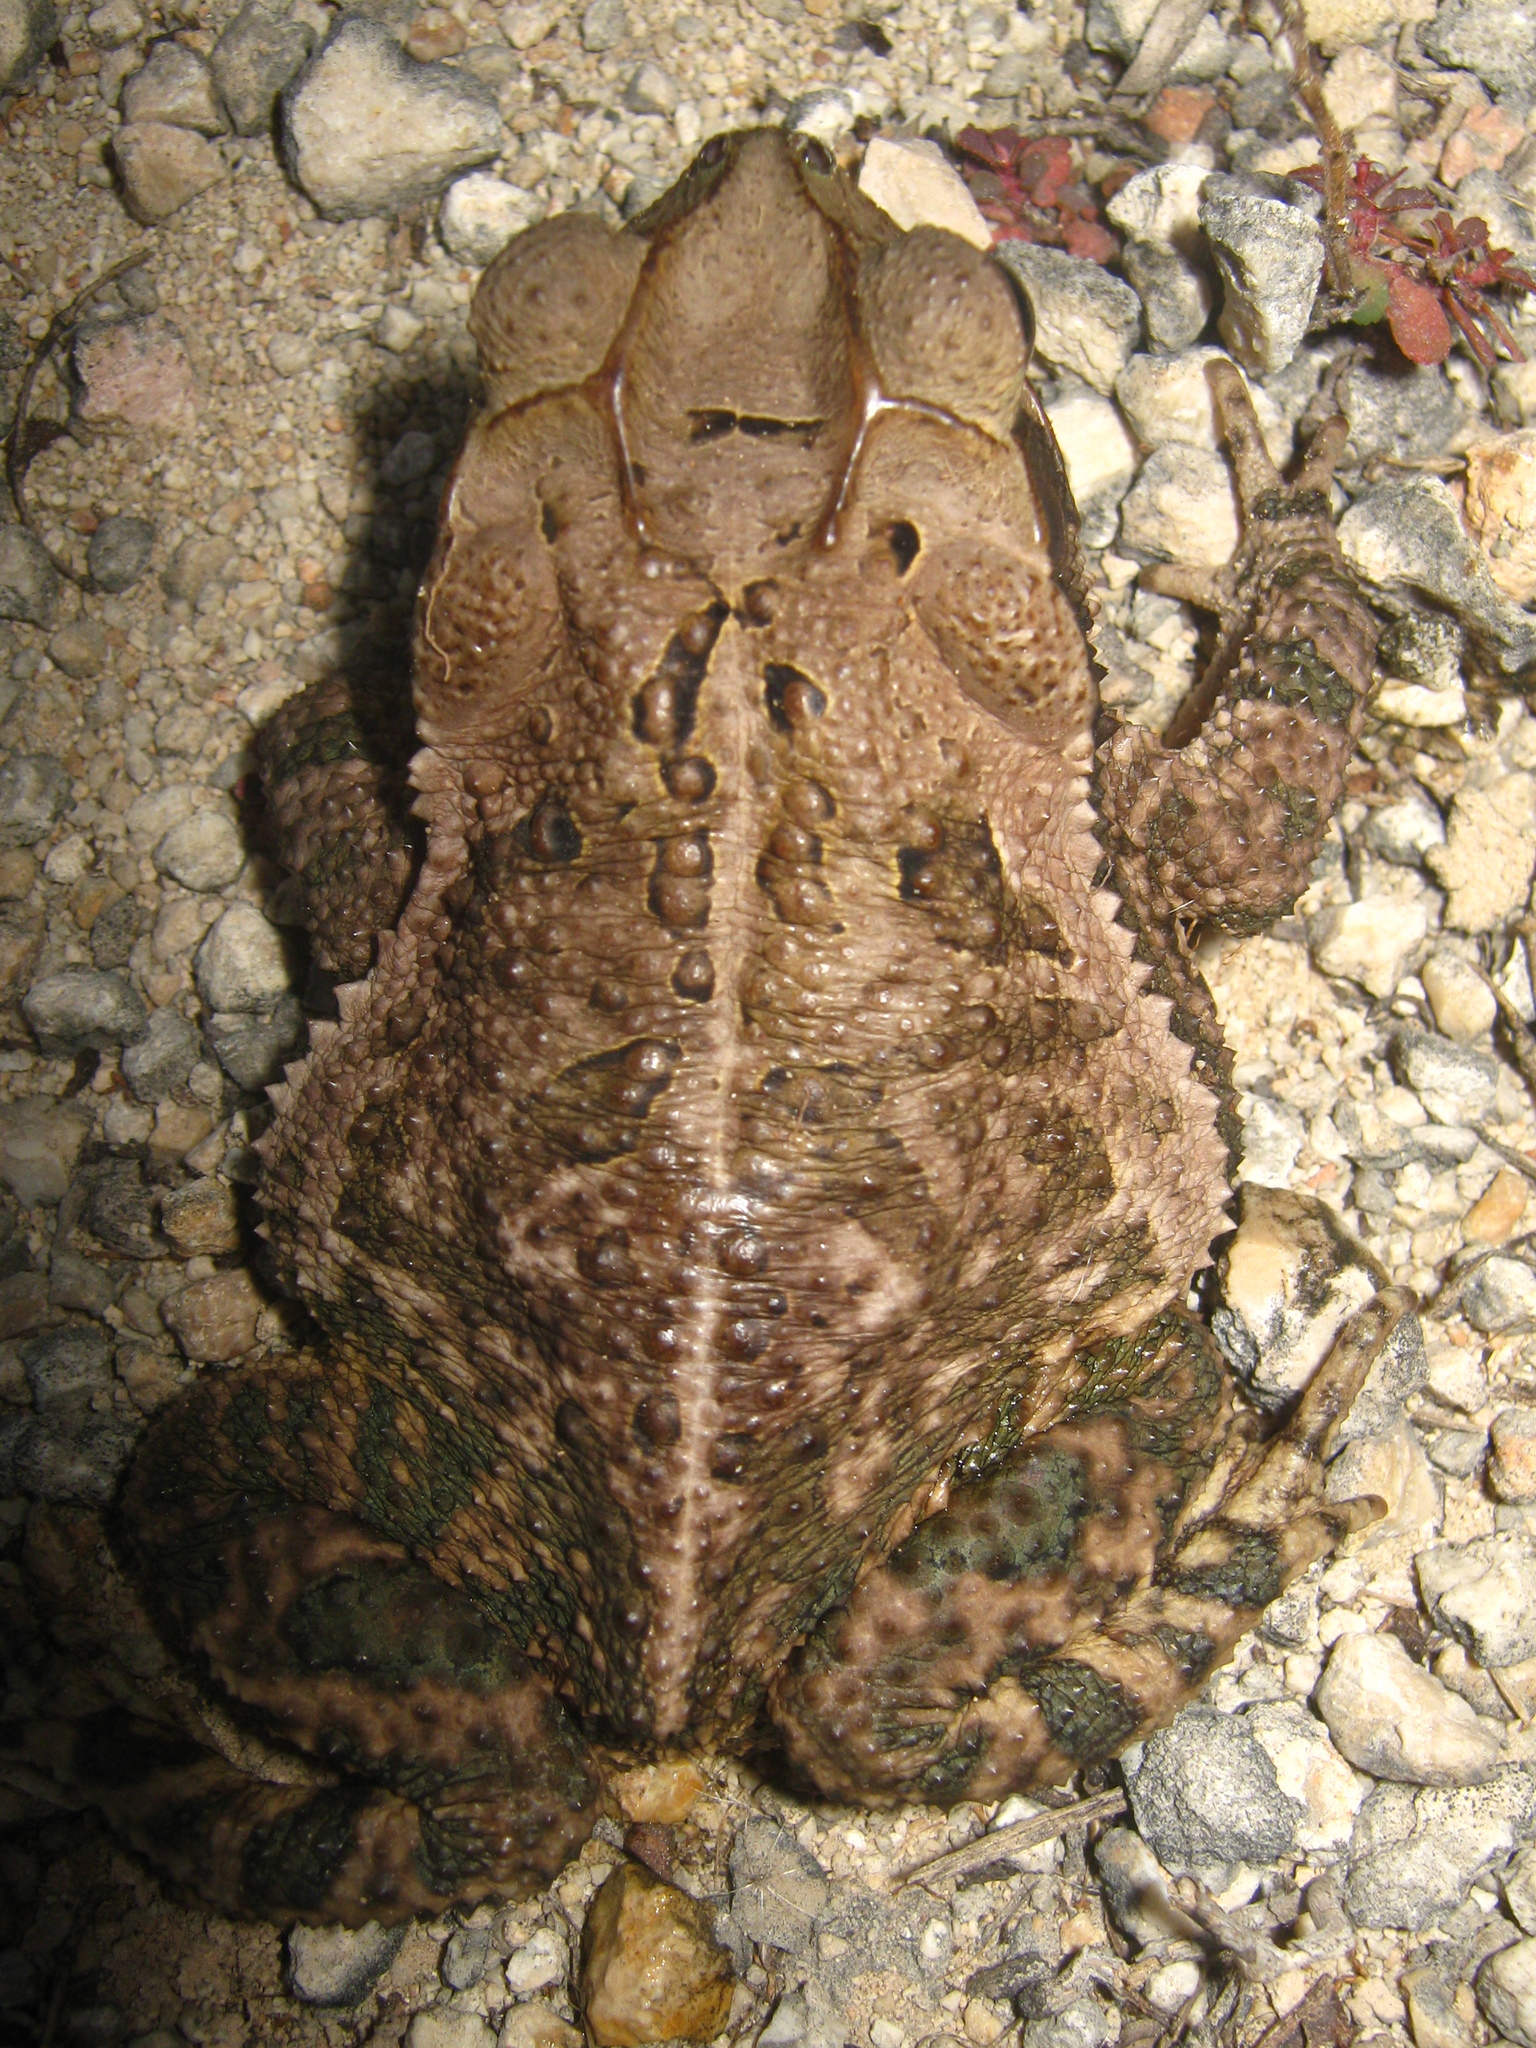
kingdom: Animalia
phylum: Chordata
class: Amphibia
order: Anura
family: Bufonidae
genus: Incilius
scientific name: Incilius valliceps
